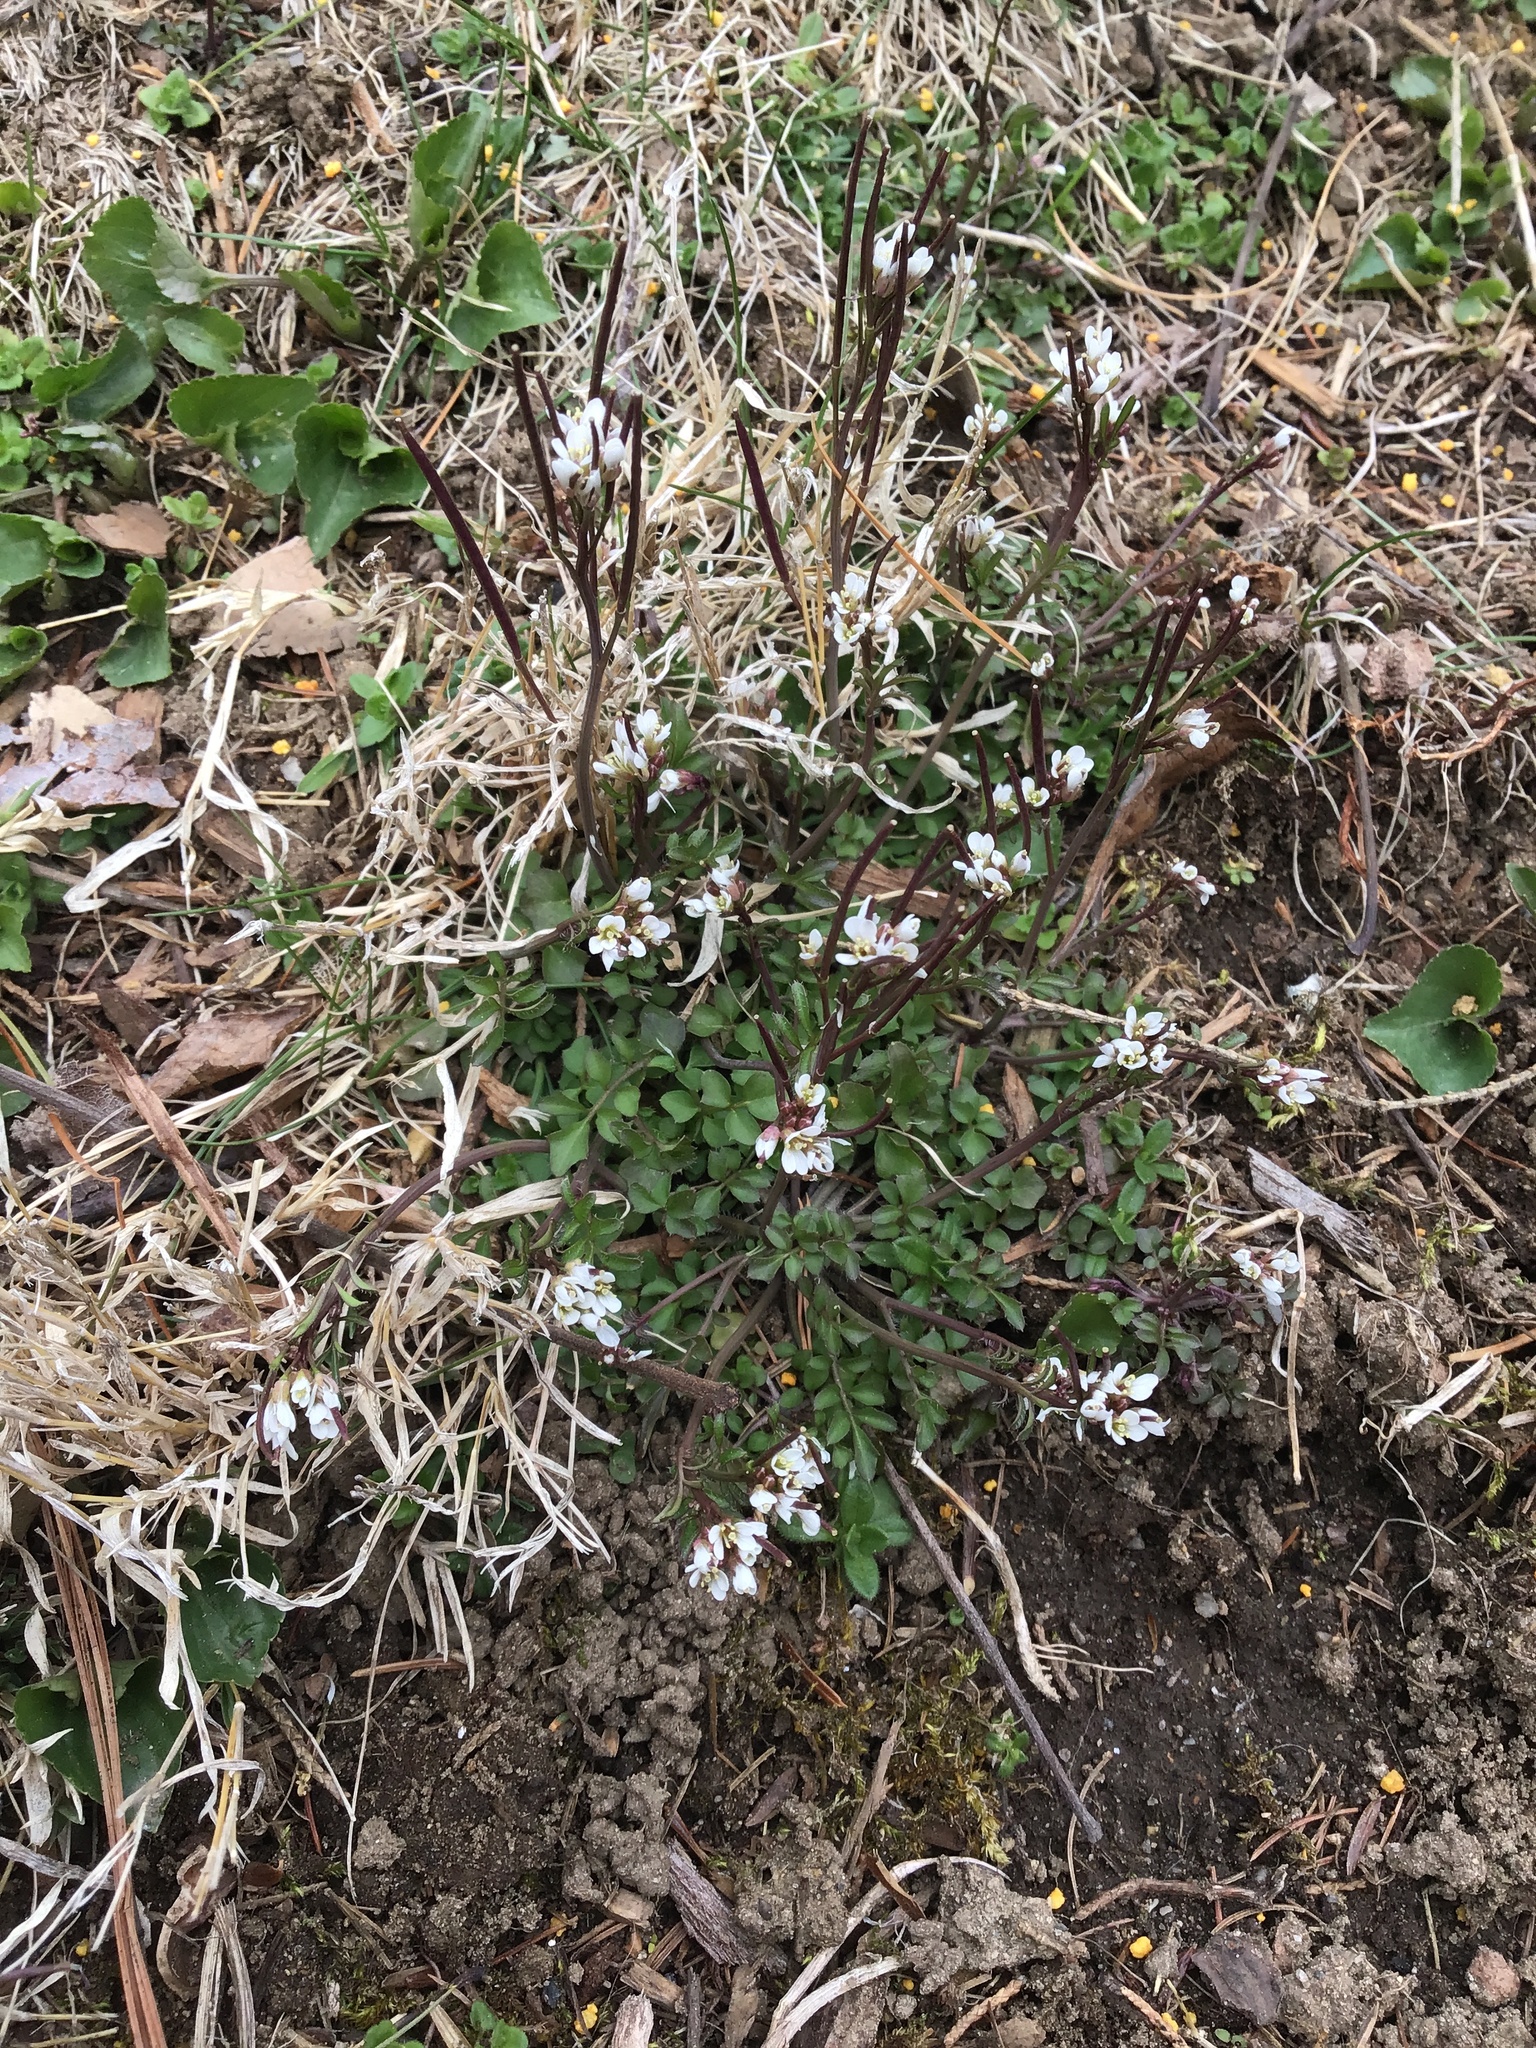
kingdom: Plantae
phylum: Tracheophyta
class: Magnoliopsida
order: Brassicales
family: Brassicaceae
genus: Cardamine
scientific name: Cardamine hirsuta
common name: Hairy bittercress
